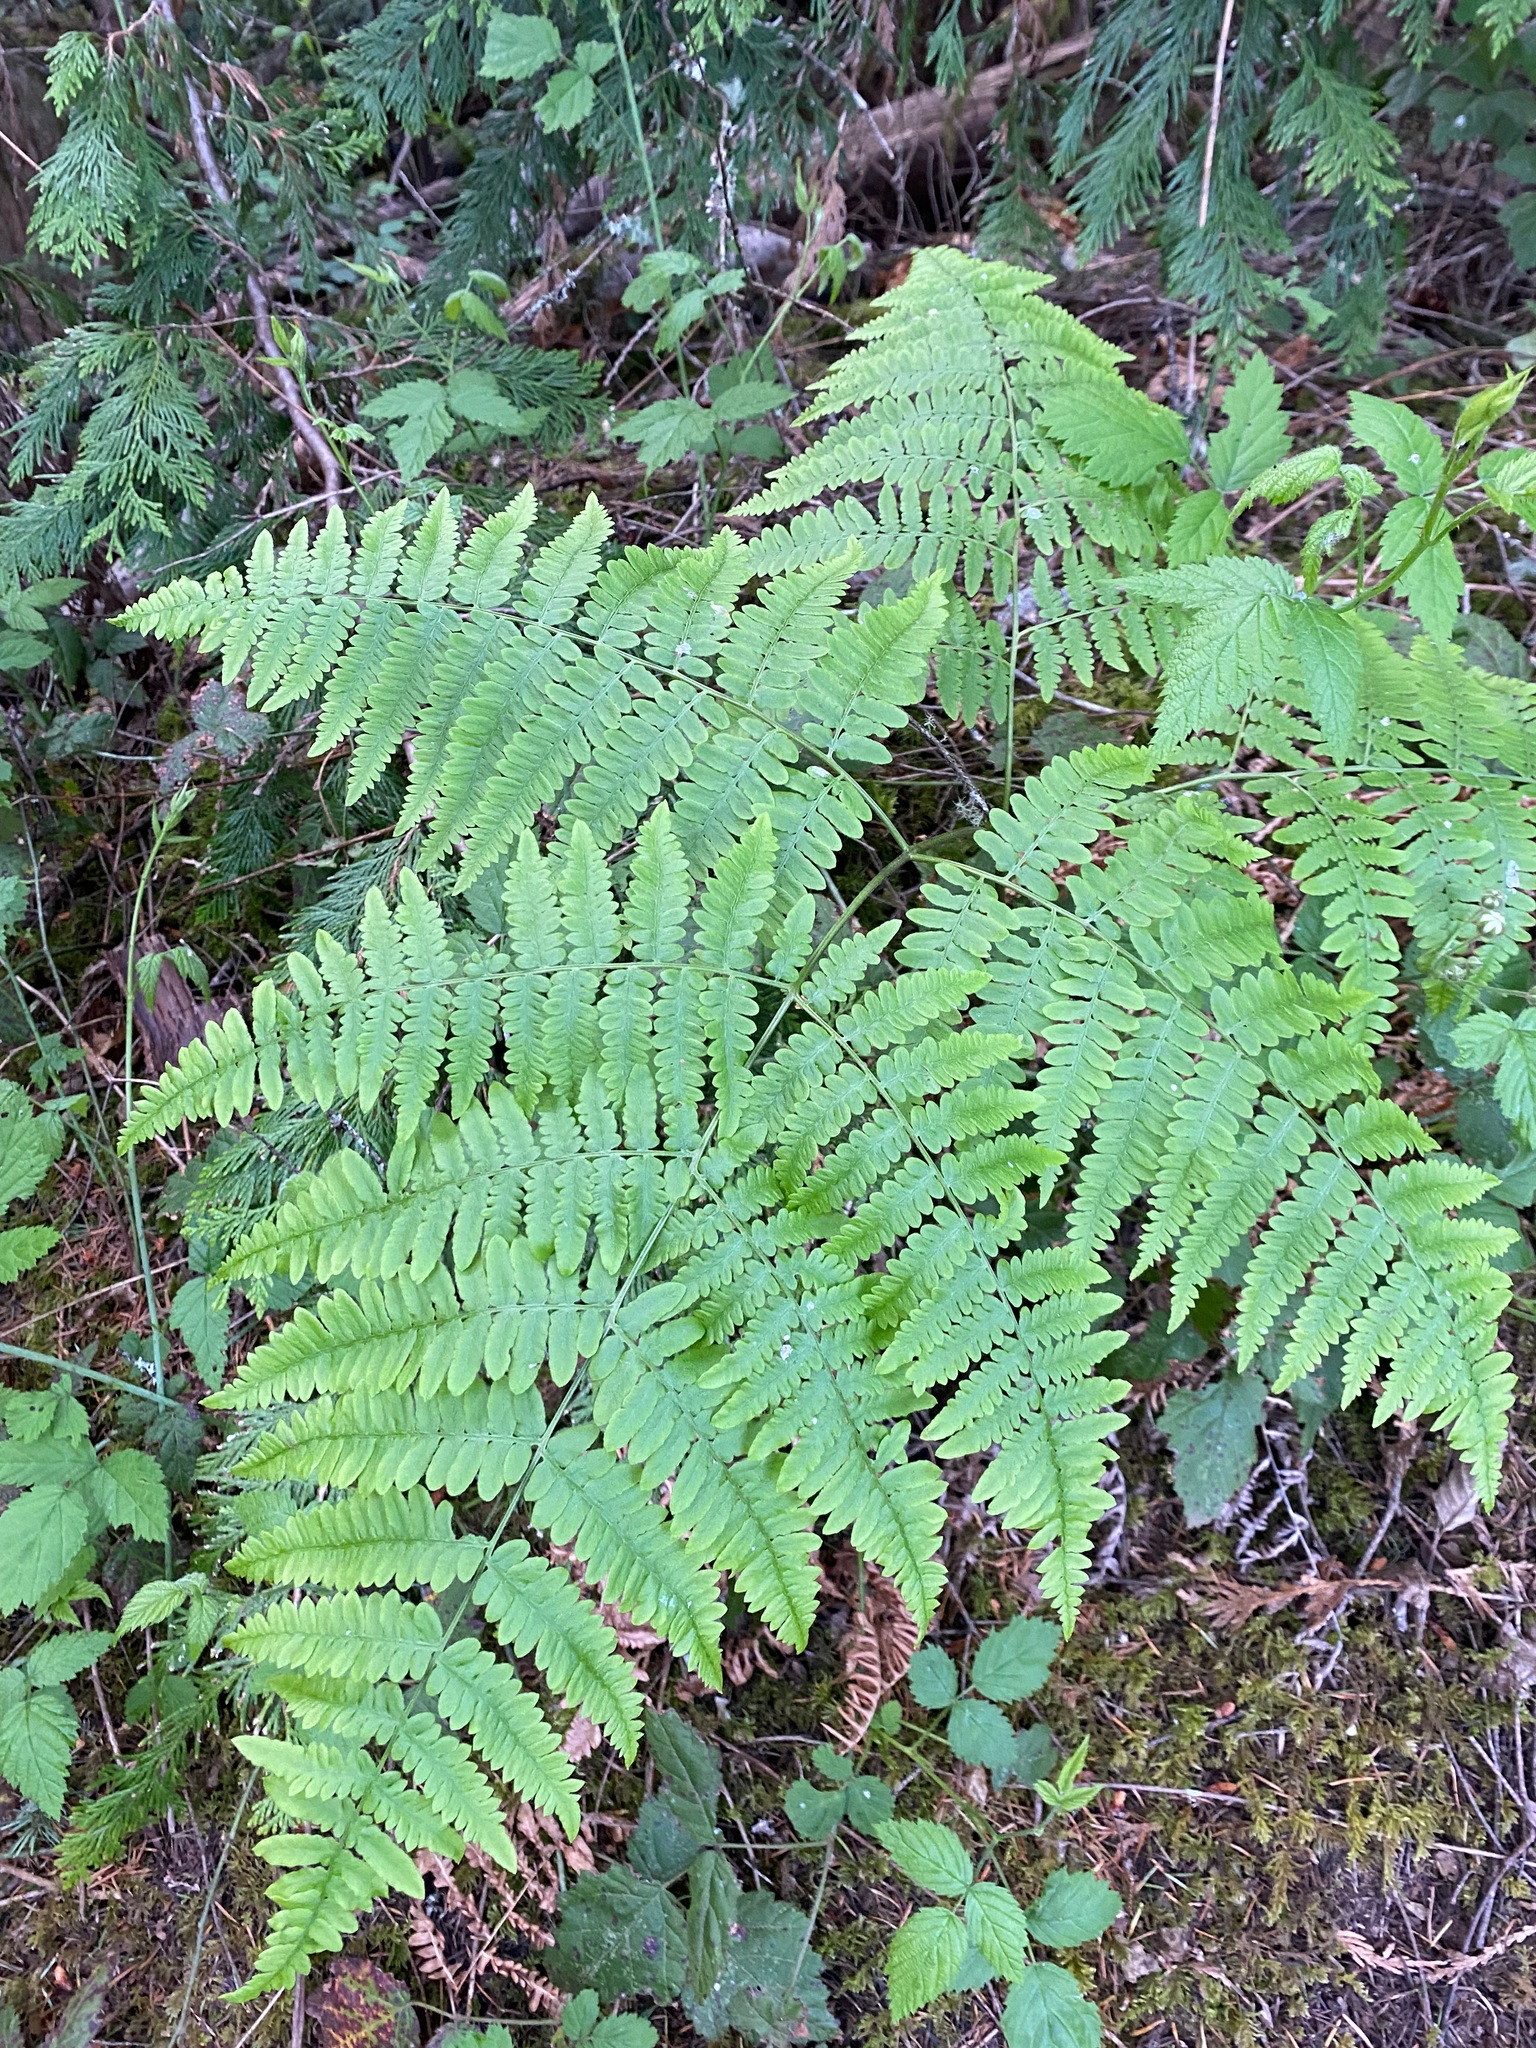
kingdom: Plantae
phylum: Tracheophyta
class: Polypodiopsida
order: Polypodiales
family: Dennstaedtiaceae
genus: Pteridium
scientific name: Pteridium aquilinum
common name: Bracken
